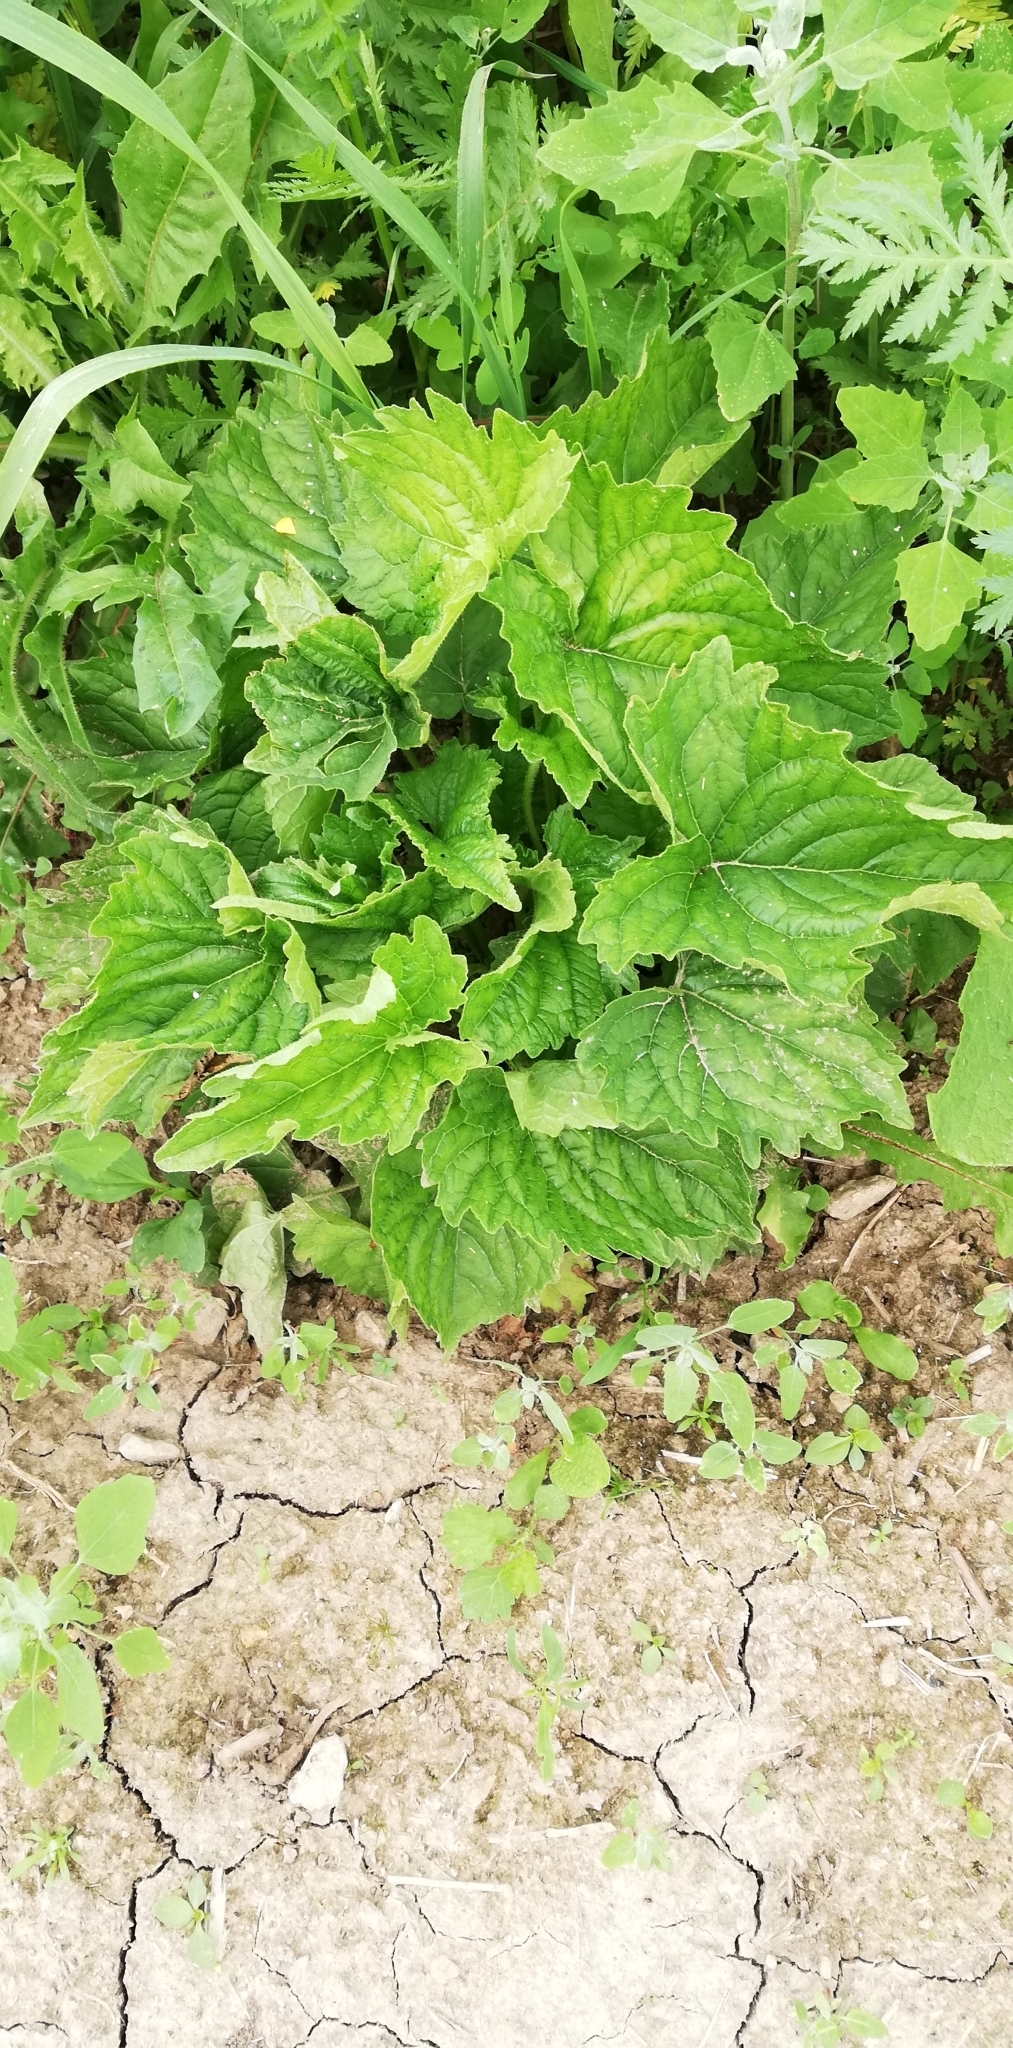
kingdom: Plantae
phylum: Tracheophyta
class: Magnoliopsida
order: Asterales
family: Campanulaceae
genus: Campanula
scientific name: Campanula trachelium
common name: Nettle-leaved bellflower
